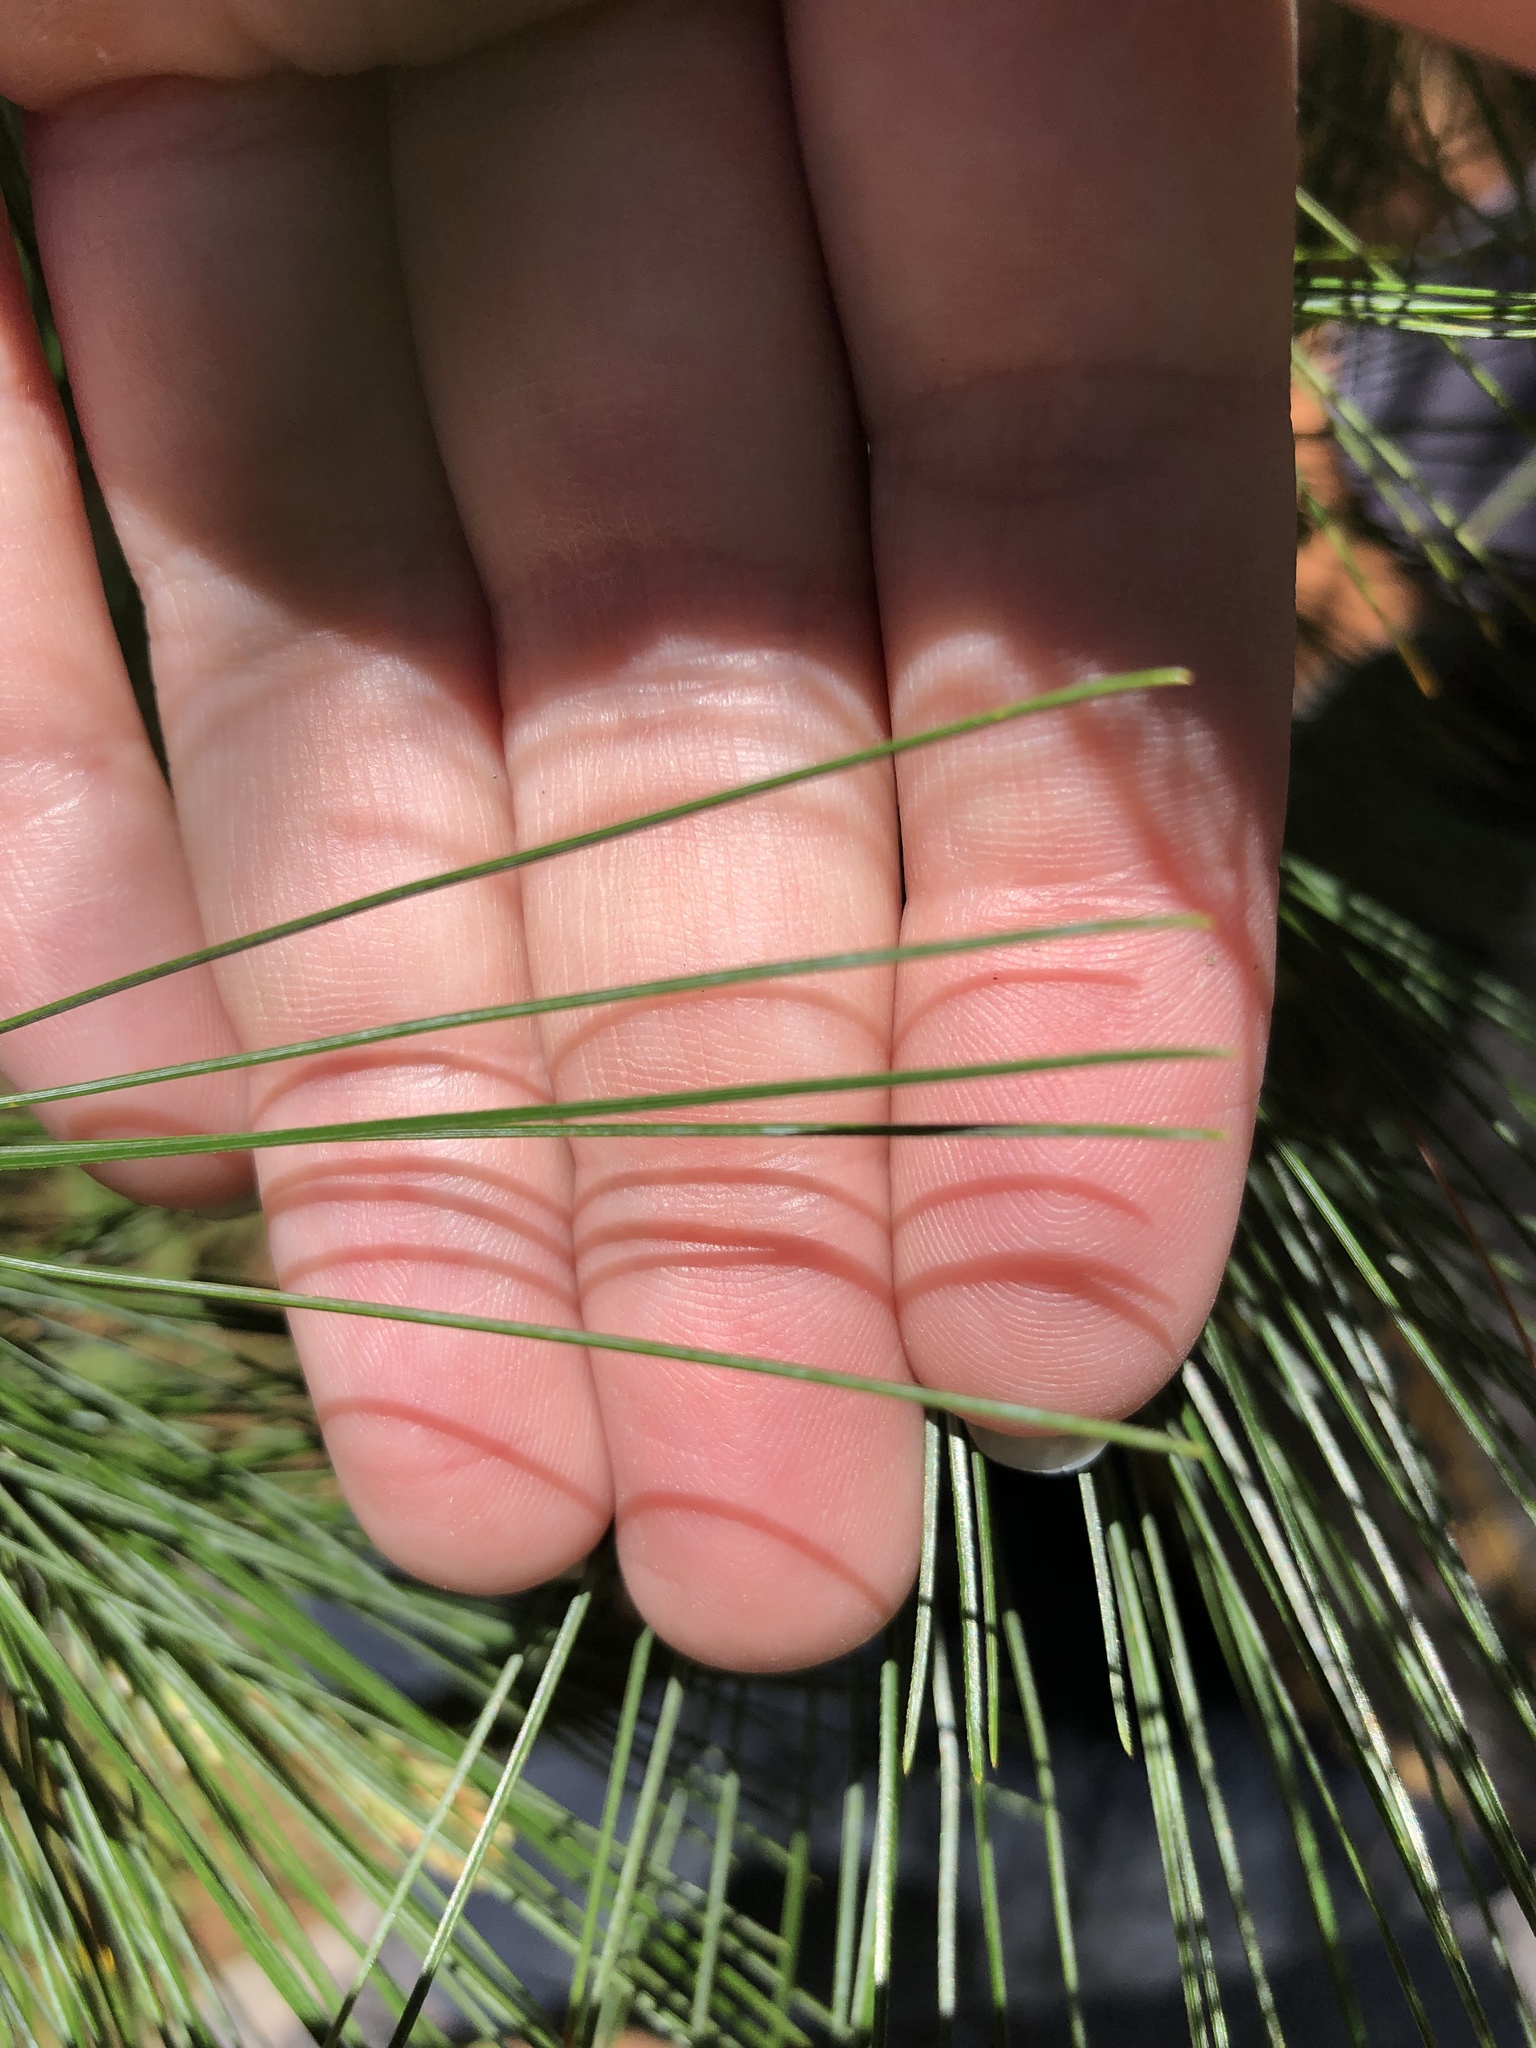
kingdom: Plantae
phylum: Tracheophyta
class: Pinopsida
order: Pinales
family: Pinaceae
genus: Pinus
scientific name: Pinus strobus
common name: Weymouth pine
